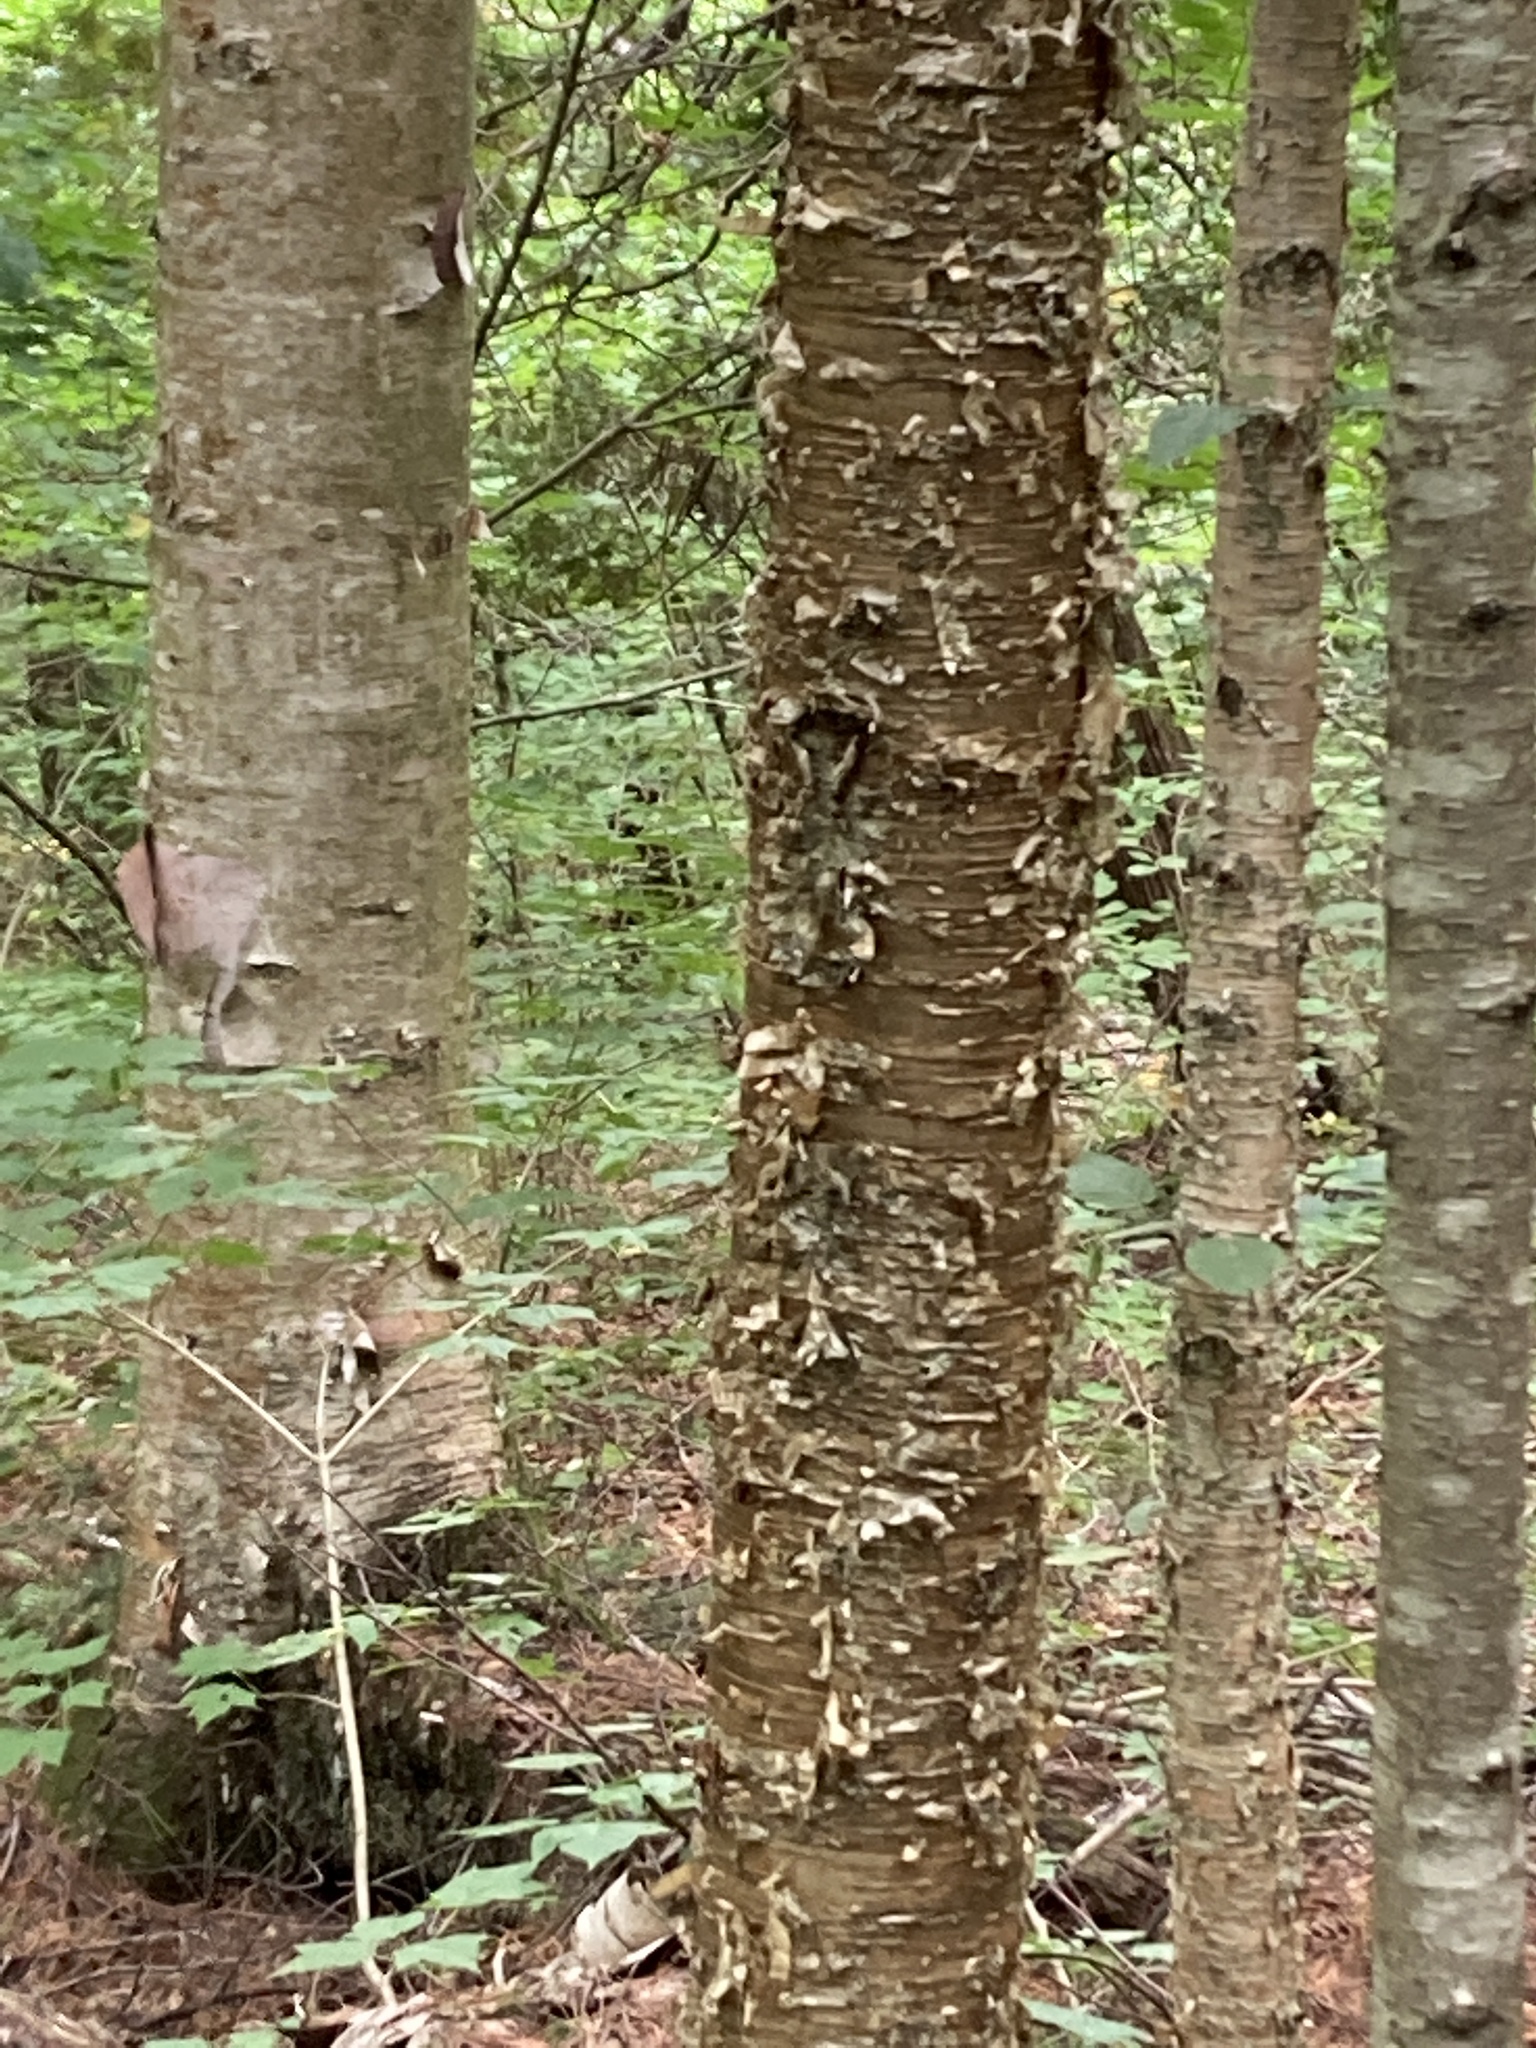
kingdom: Plantae
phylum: Tracheophyta
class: Magnoliopsida
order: Fagales
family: Betulaceae
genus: Betula
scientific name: Betula alleghaniensis
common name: Yellow birch
